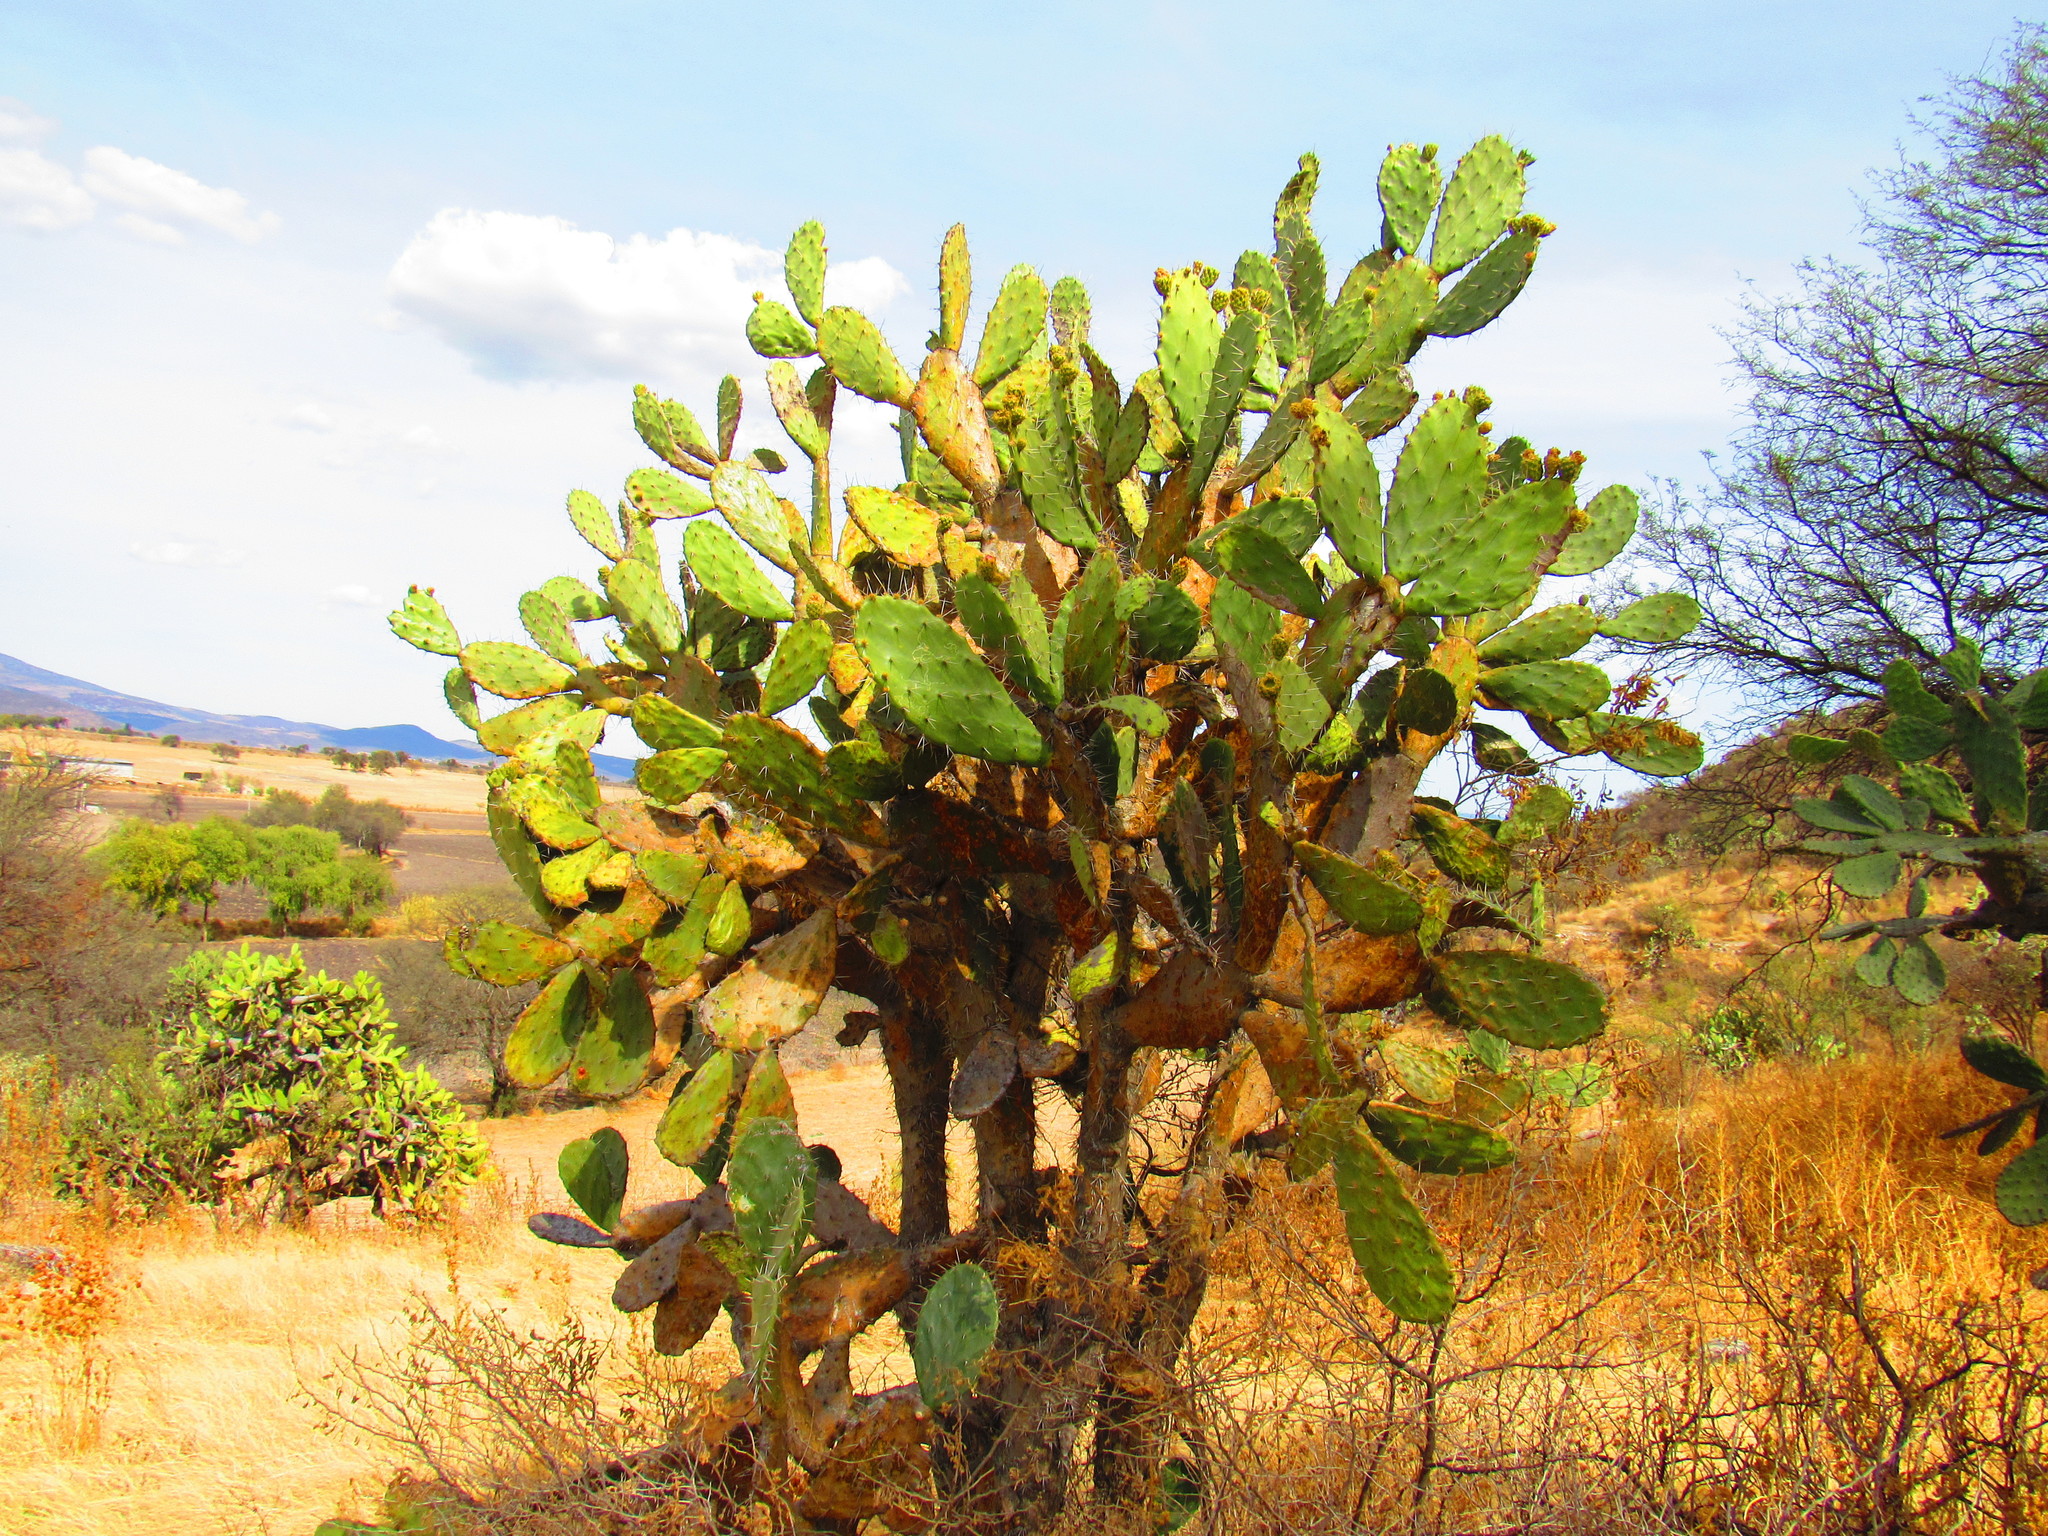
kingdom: Plantae
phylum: Tracheophyta
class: Magnoliopsida
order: Caryophyllales
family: Cactaceae
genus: Opuntia
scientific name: Opuntia tomentosa
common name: Woollyjoint pricklypear
